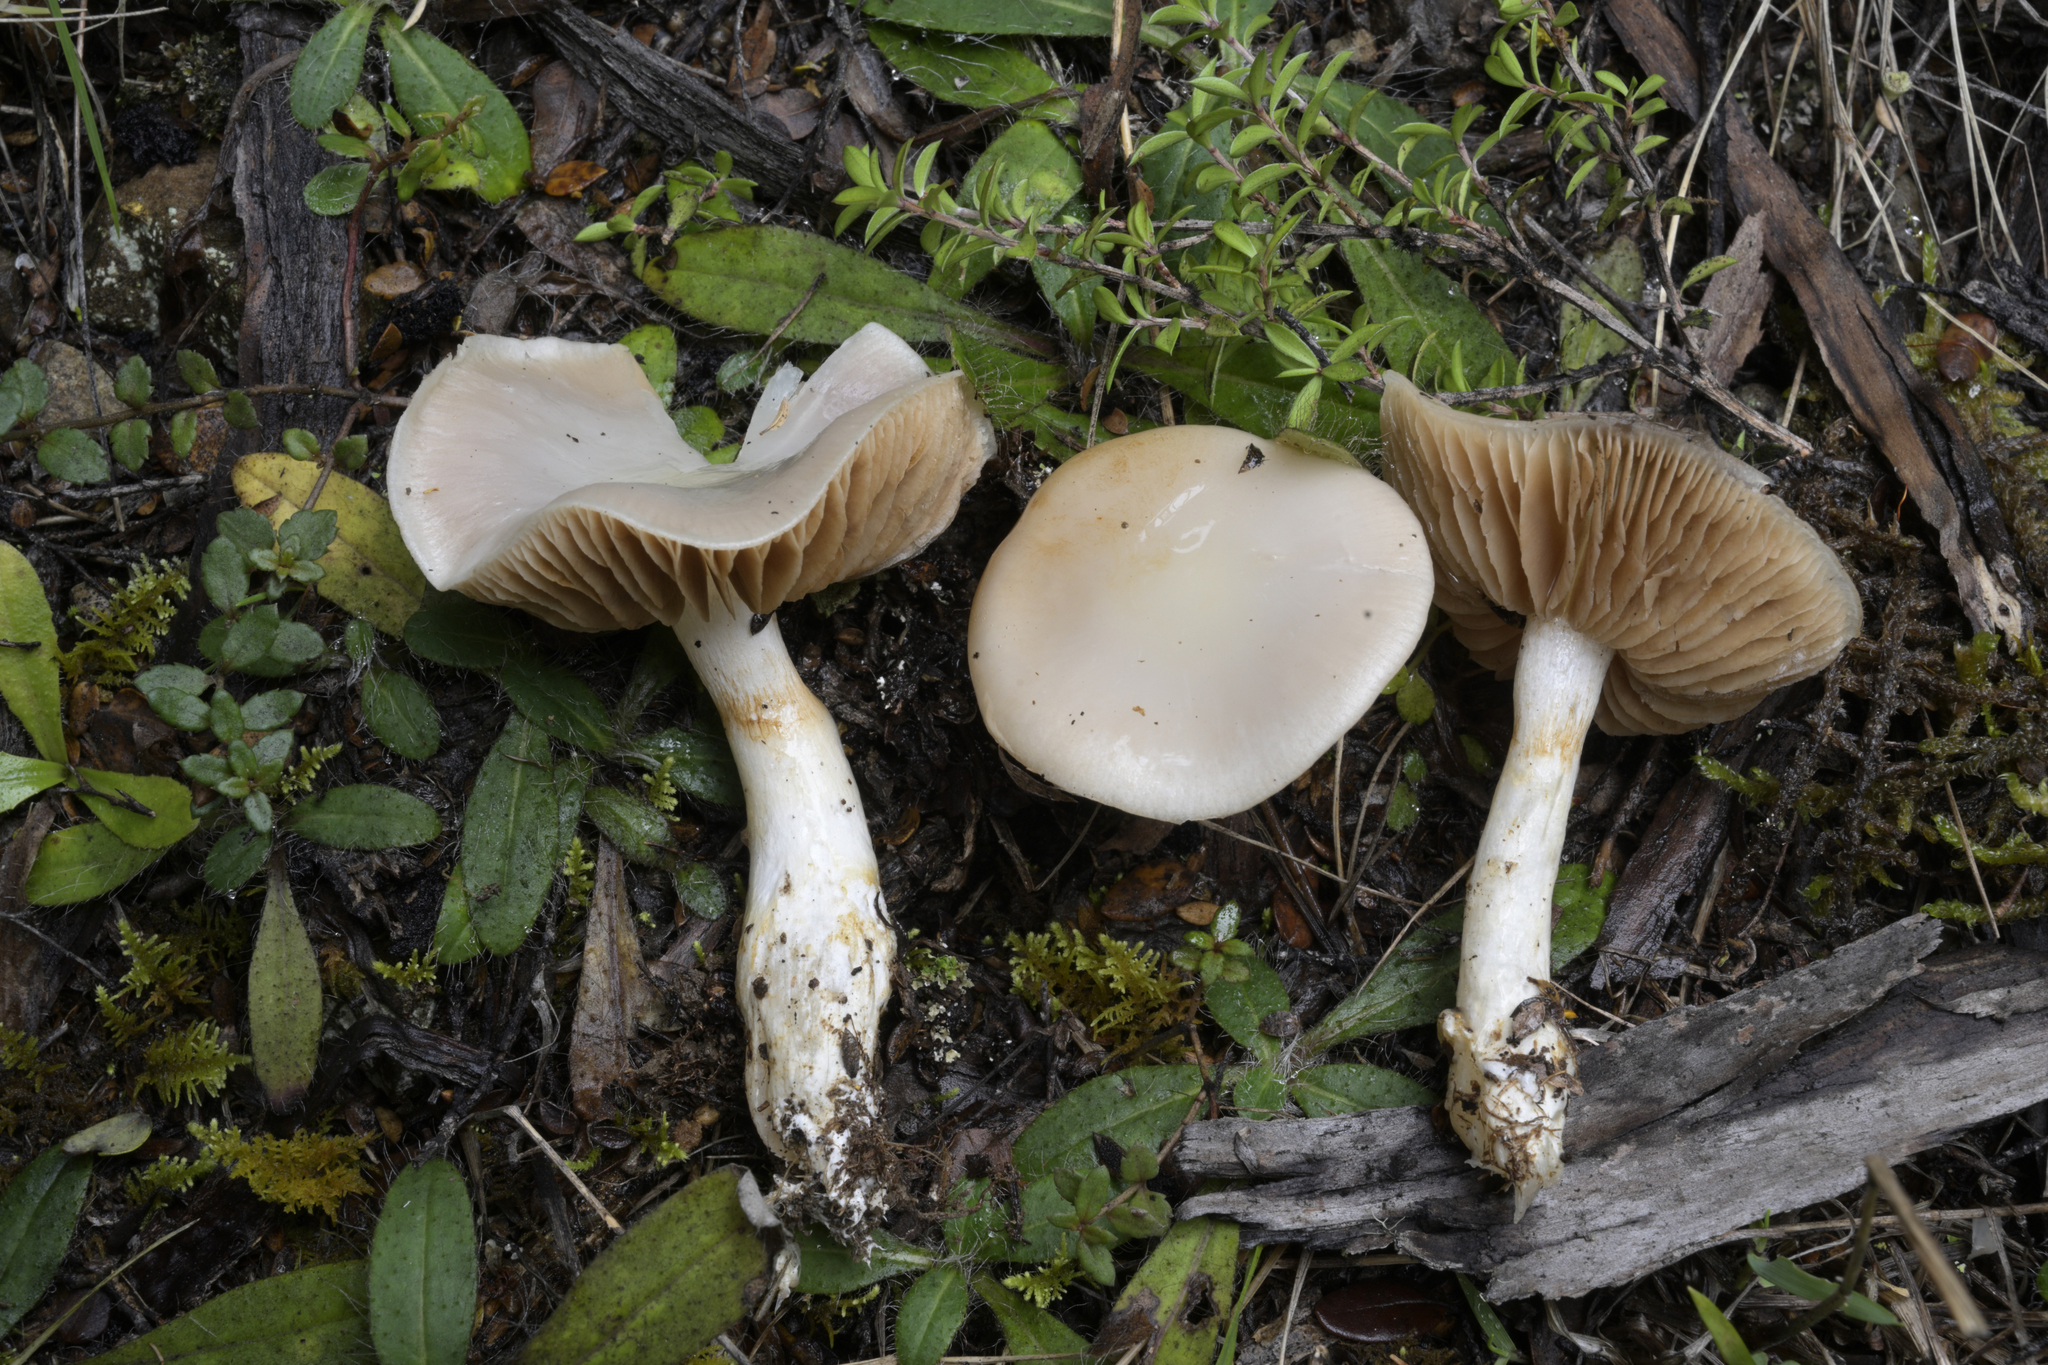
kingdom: Fungi
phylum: Basidiomycota
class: Agaricomycetes
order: Agaricales
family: Cortinariaceae
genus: Cortinarius
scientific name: Cortinarius vitreofulvus
